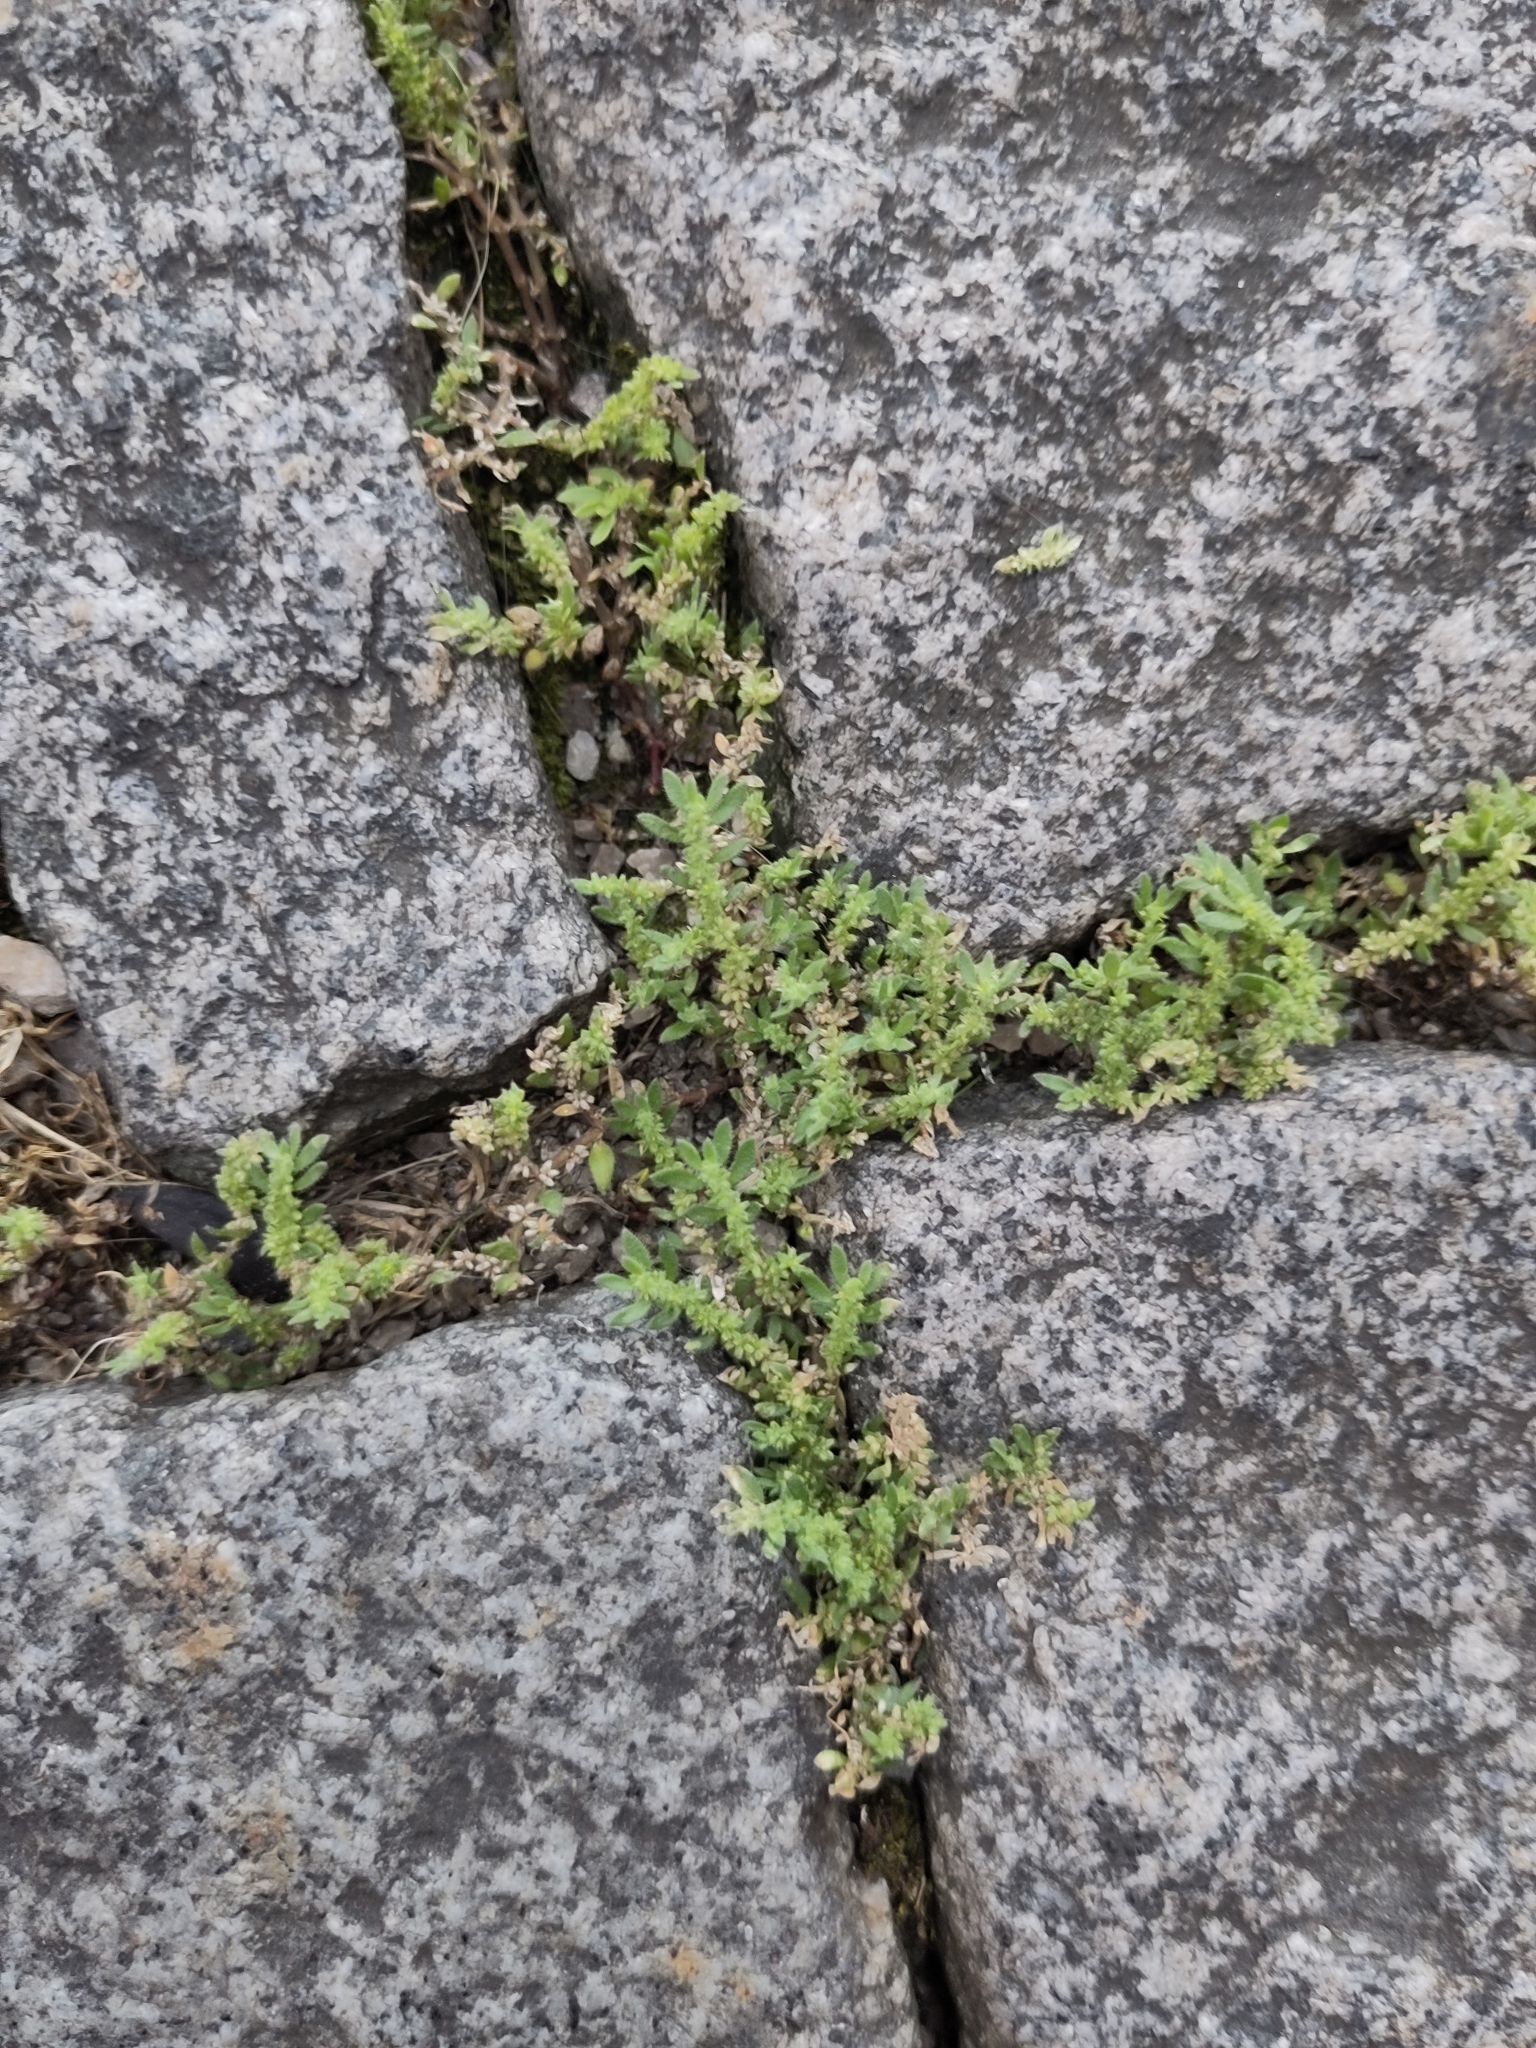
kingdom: Plantae
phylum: Tracheophyta
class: Magnoliopsida
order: Caryophyllales
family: Caryophyllaceae
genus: Herniaria
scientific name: Herniaria hirsuta
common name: Hairy rupturewort
